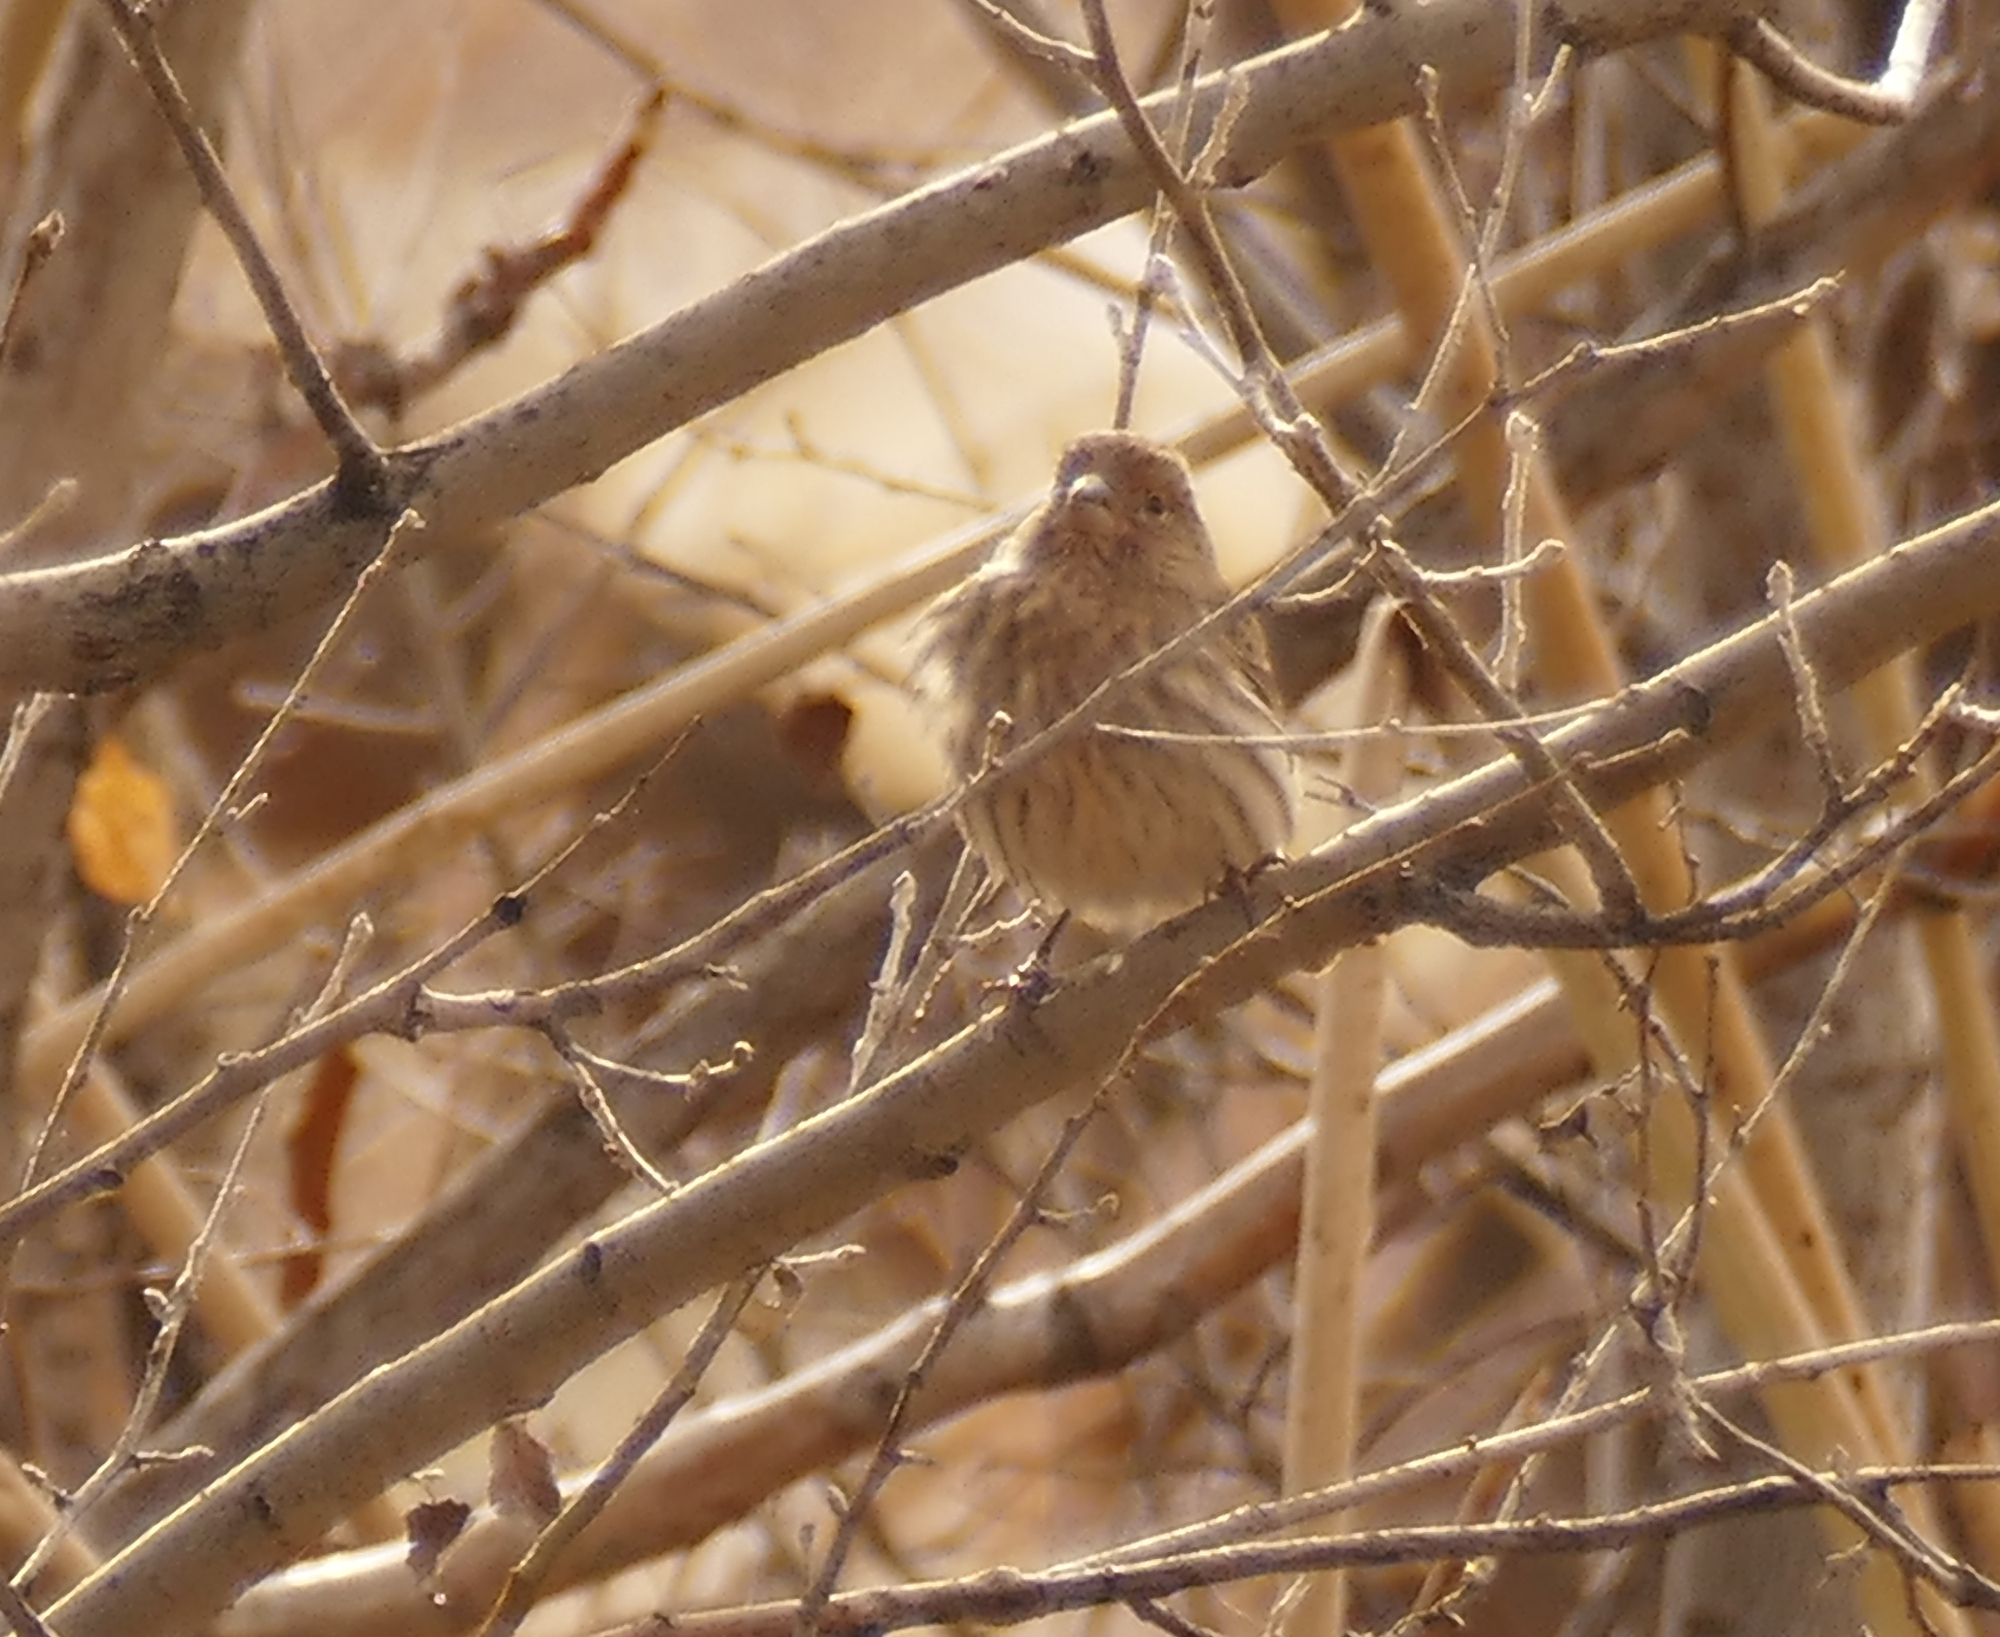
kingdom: Animalia
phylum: Chordata
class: Aves
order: Passeriformes
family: Fringillidae
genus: Haemorhous
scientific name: Haemorhous mexicanus
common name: House finch
